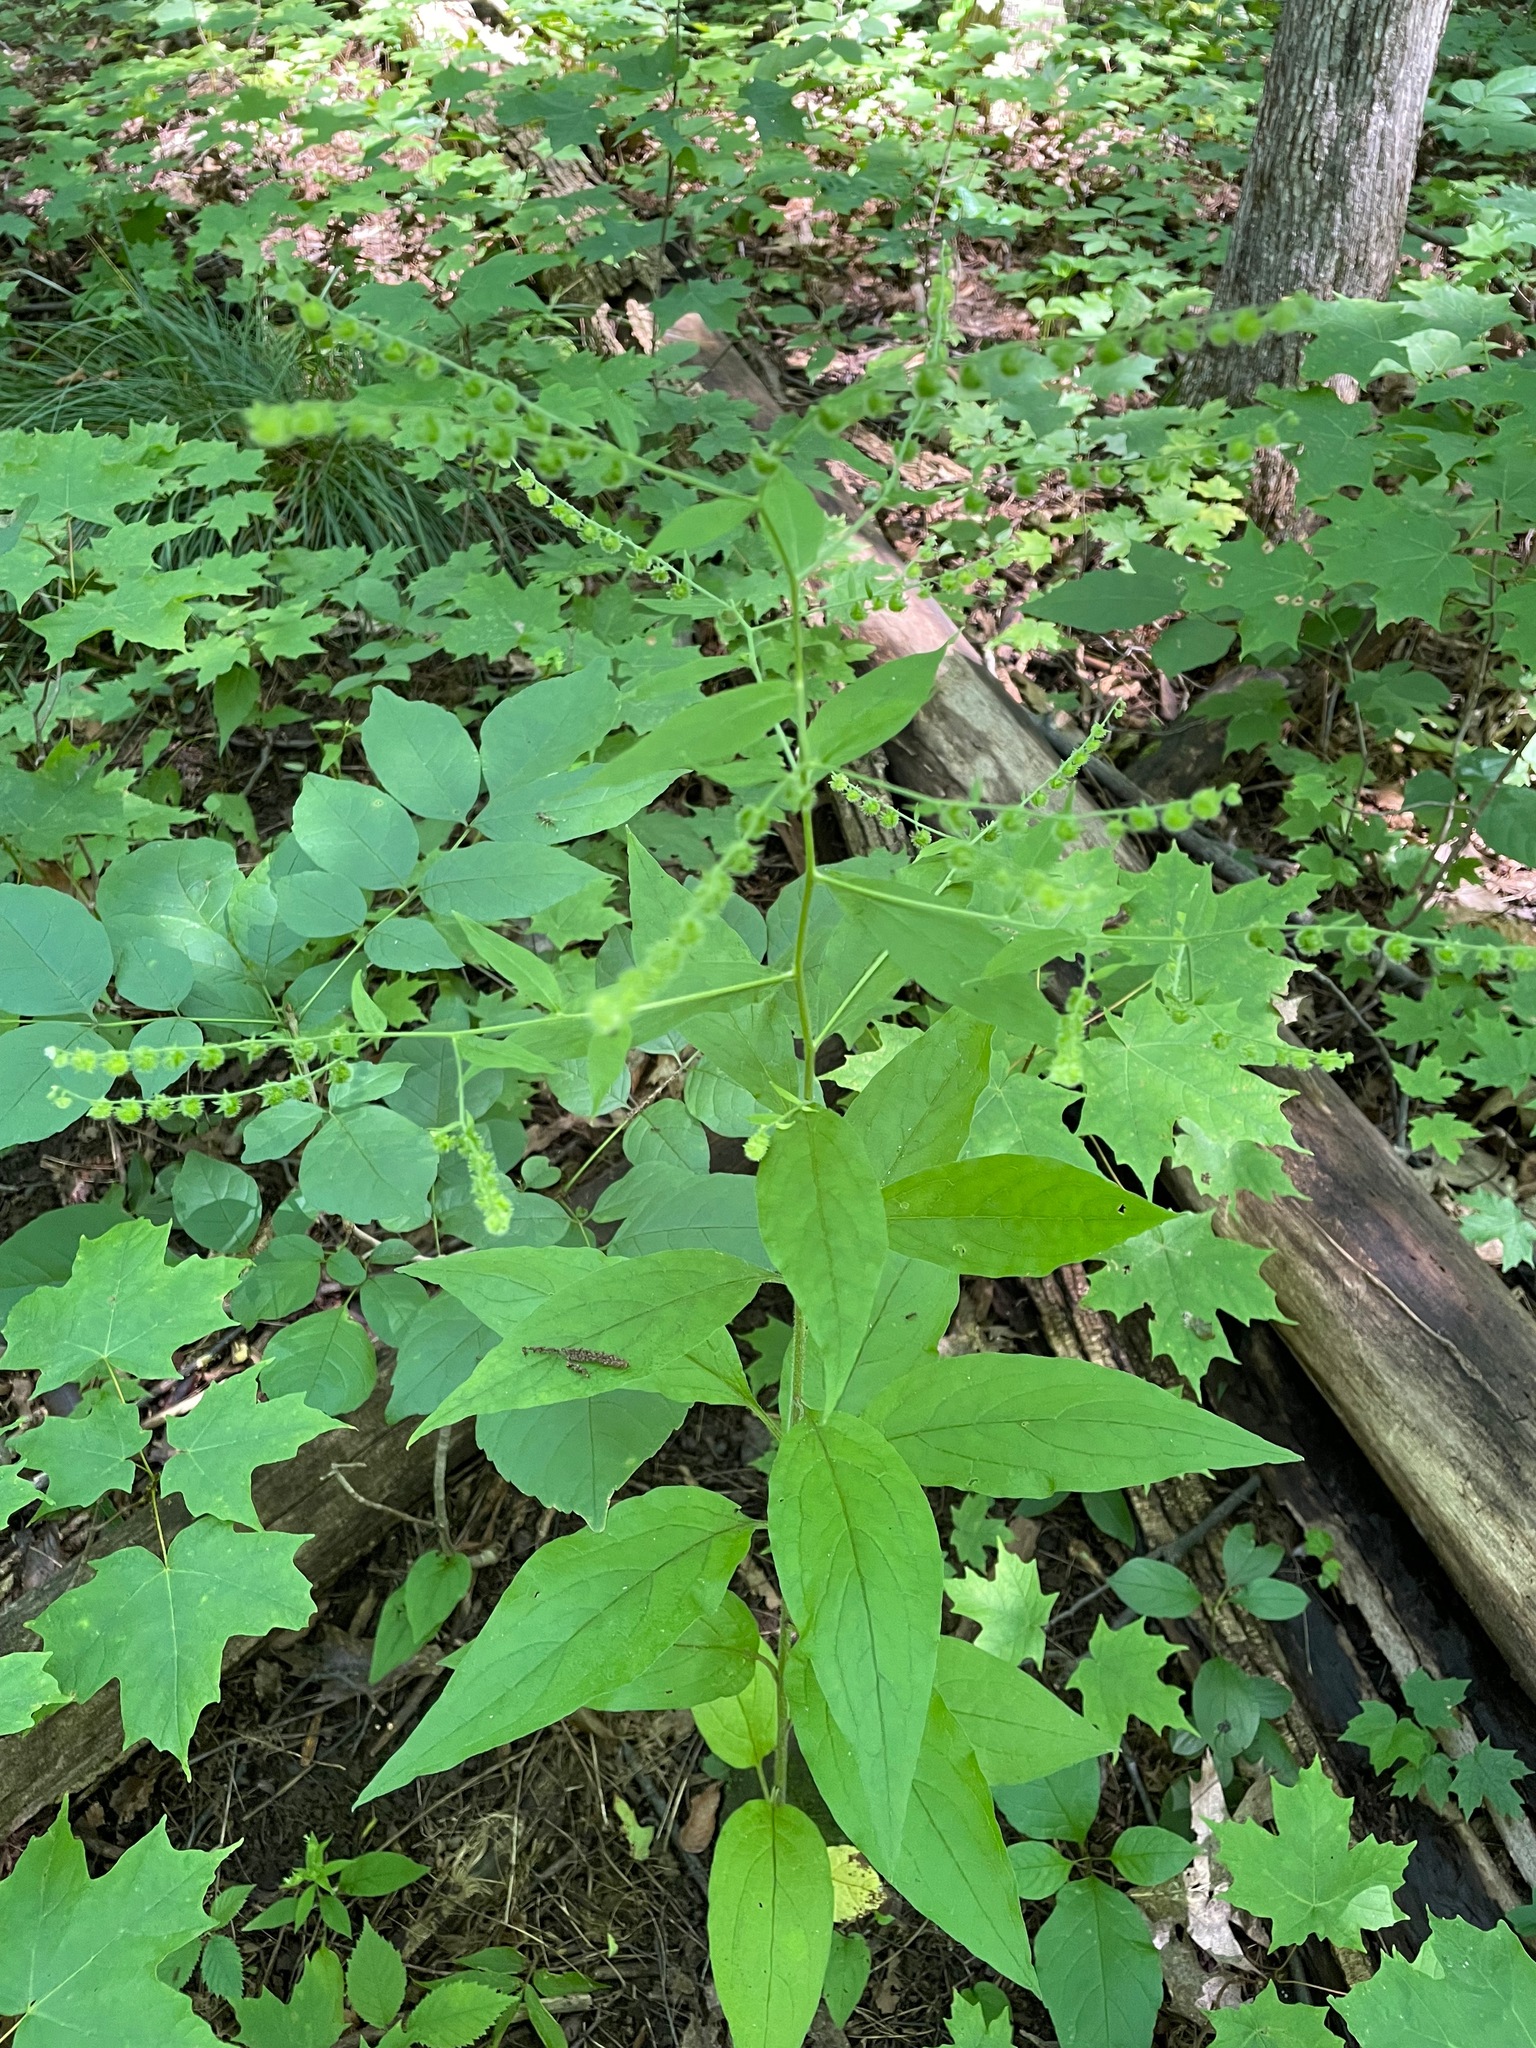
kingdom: Plantae
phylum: Tracheophyta
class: Magnoliopsida
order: Boraginales
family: Boraginaceae
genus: Hackelia
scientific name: Hackelia virginiana
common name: Beggar's-lice
